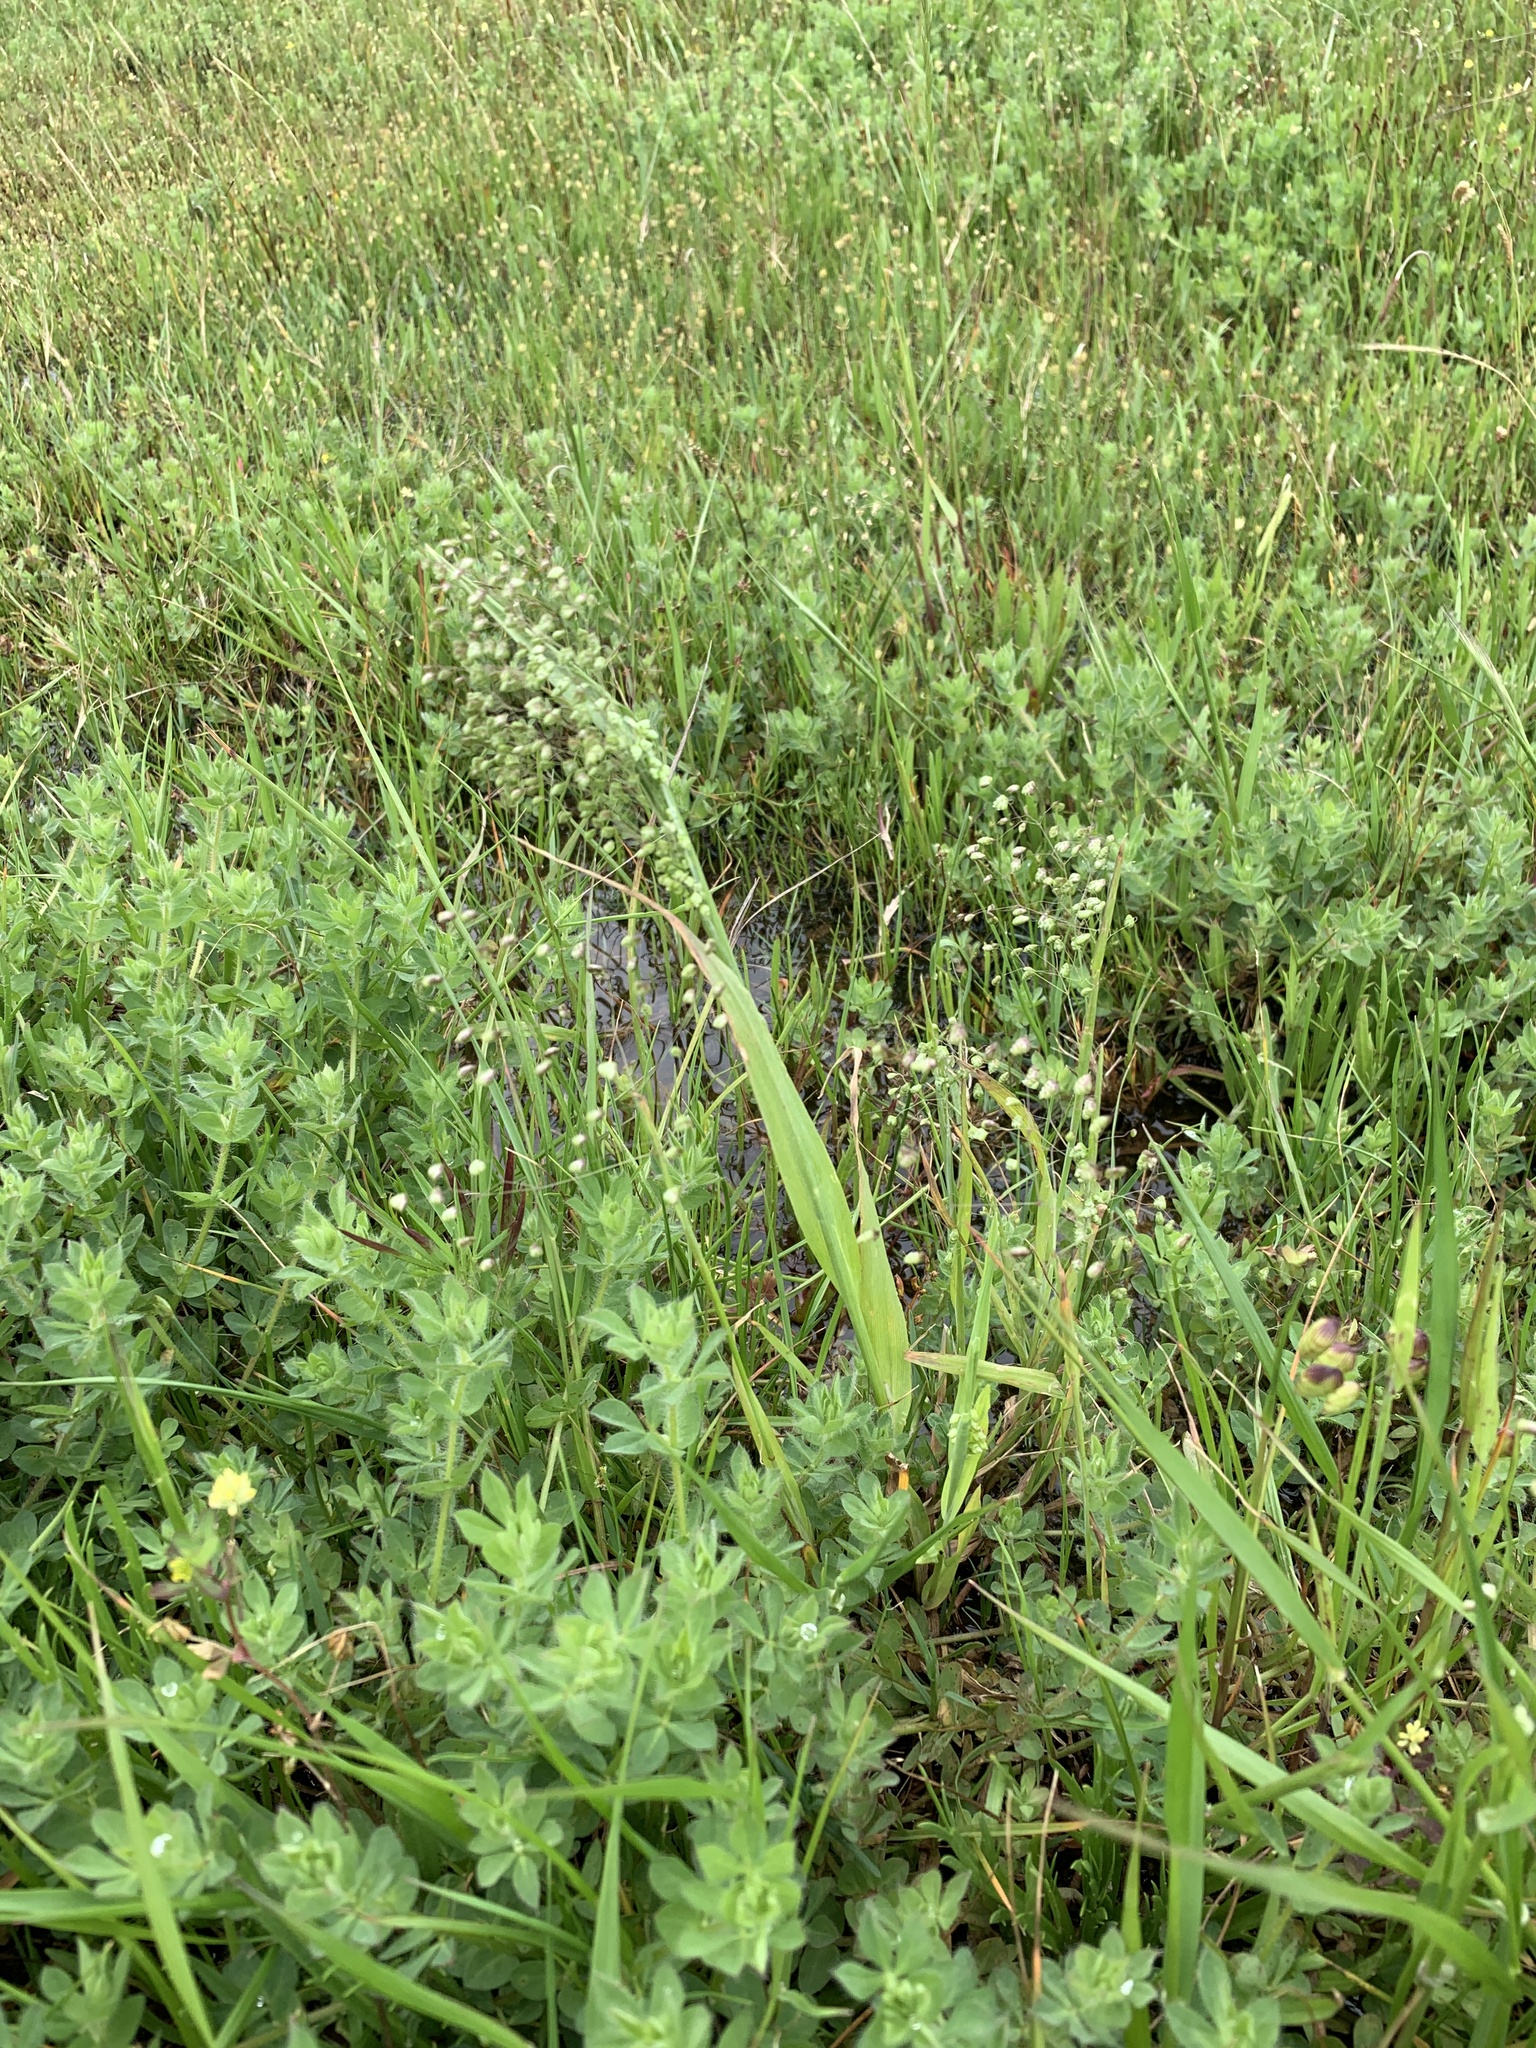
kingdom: Plantae
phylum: Tracheophyta
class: Liliopsida
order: Poales
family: Poaceae
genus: Briza
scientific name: Briza minor
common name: Lesser quaking-grass
